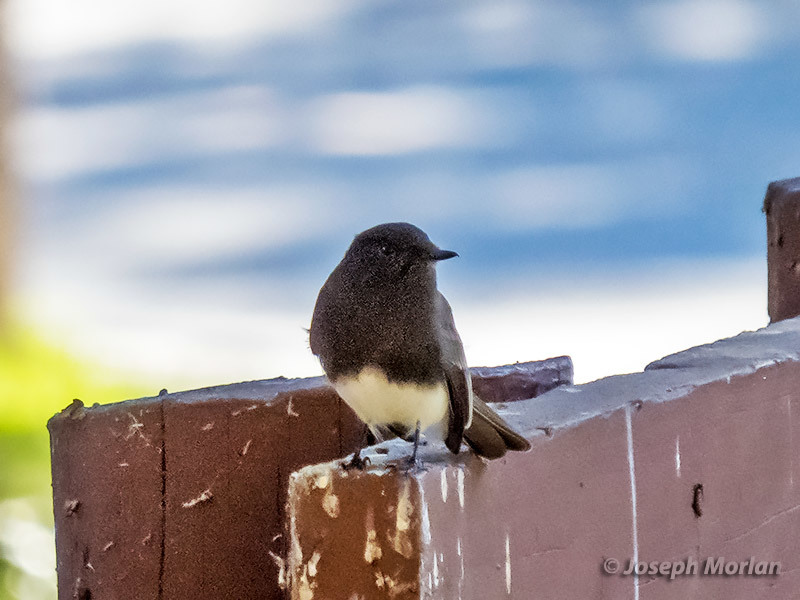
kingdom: Animalia
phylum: Chordata
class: Aves
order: Passeriformes
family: Tyrannidae
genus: Sayornis
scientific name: Sayornis nigricans
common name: Black phoebe
